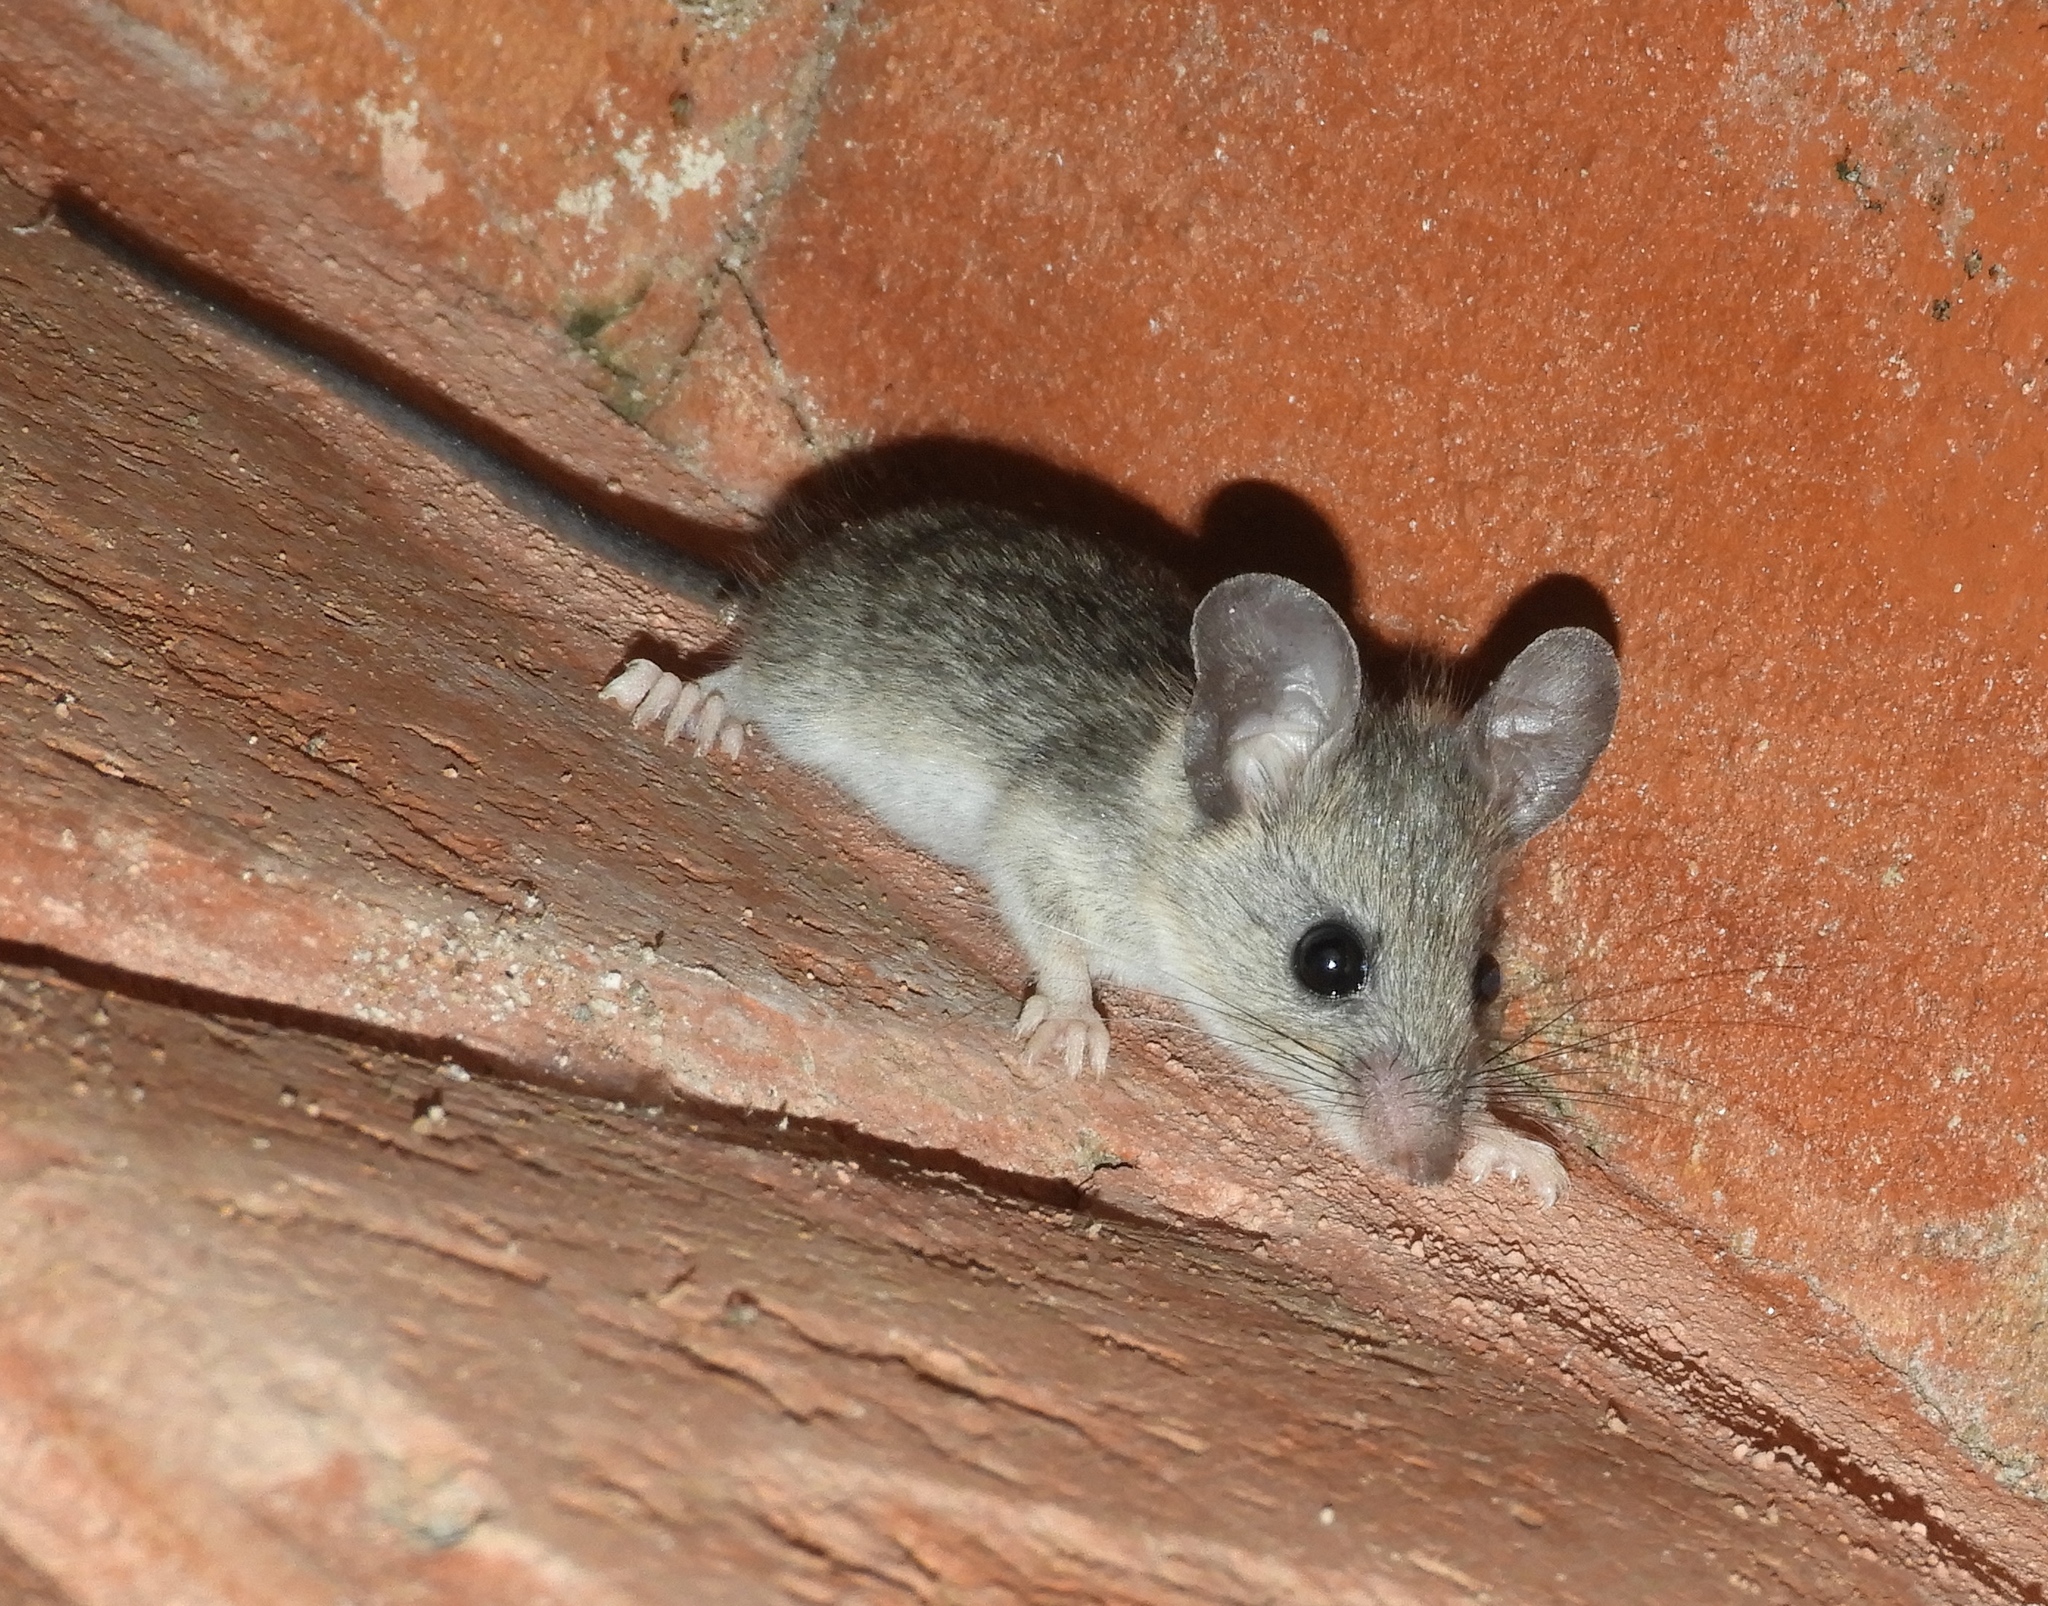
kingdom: Animalia
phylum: Chordata
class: Mammalia
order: Rodentia
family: Cricetidae
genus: Peromyscus
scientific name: Peromyscus
